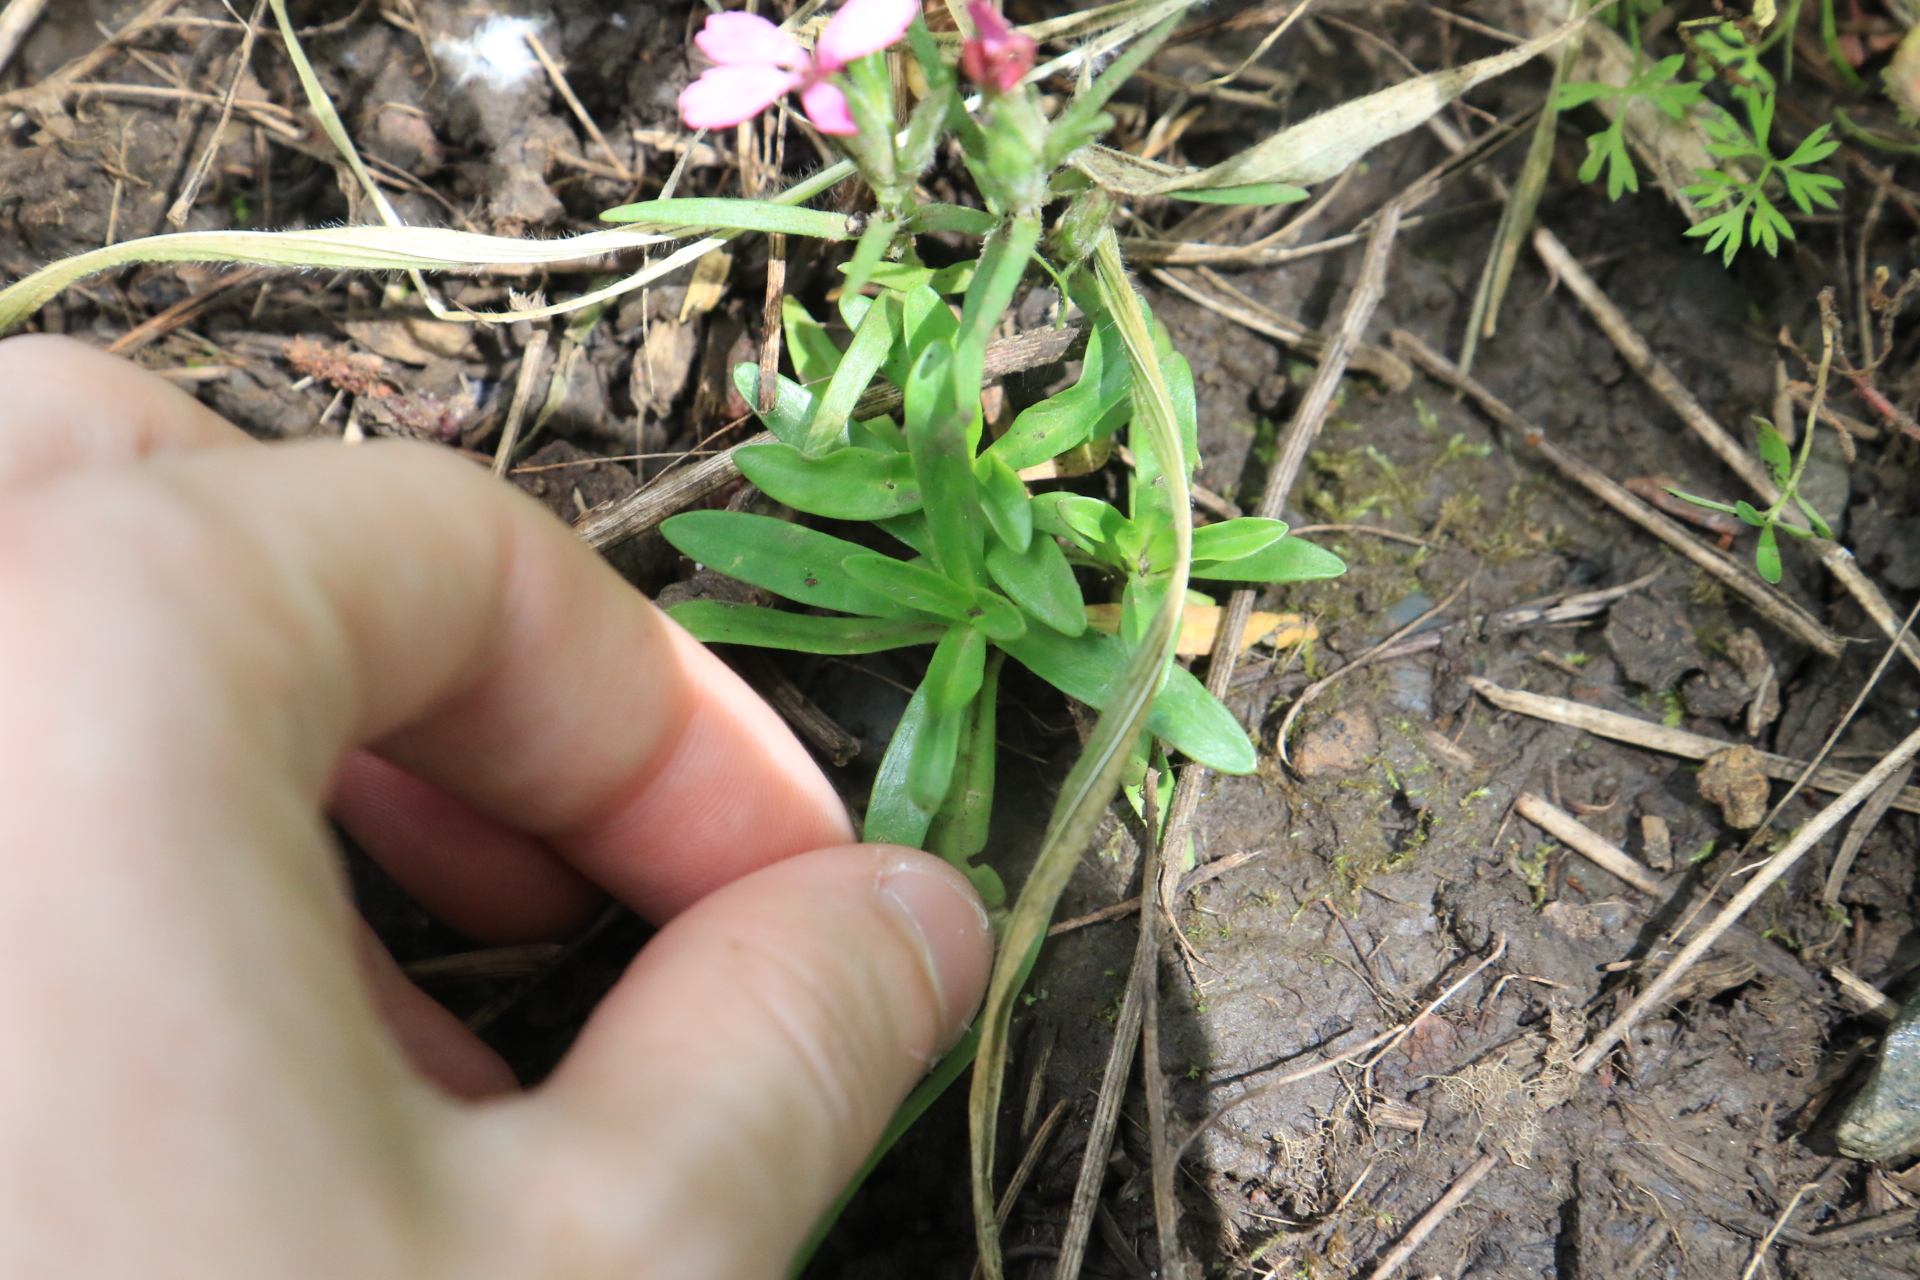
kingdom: Plantae
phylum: Tracheophyta
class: Magnoliopsida
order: Caryophyllales
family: Caryophyllaceae
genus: Dianthus
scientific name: Dianthus armeria
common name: Deptford pink
